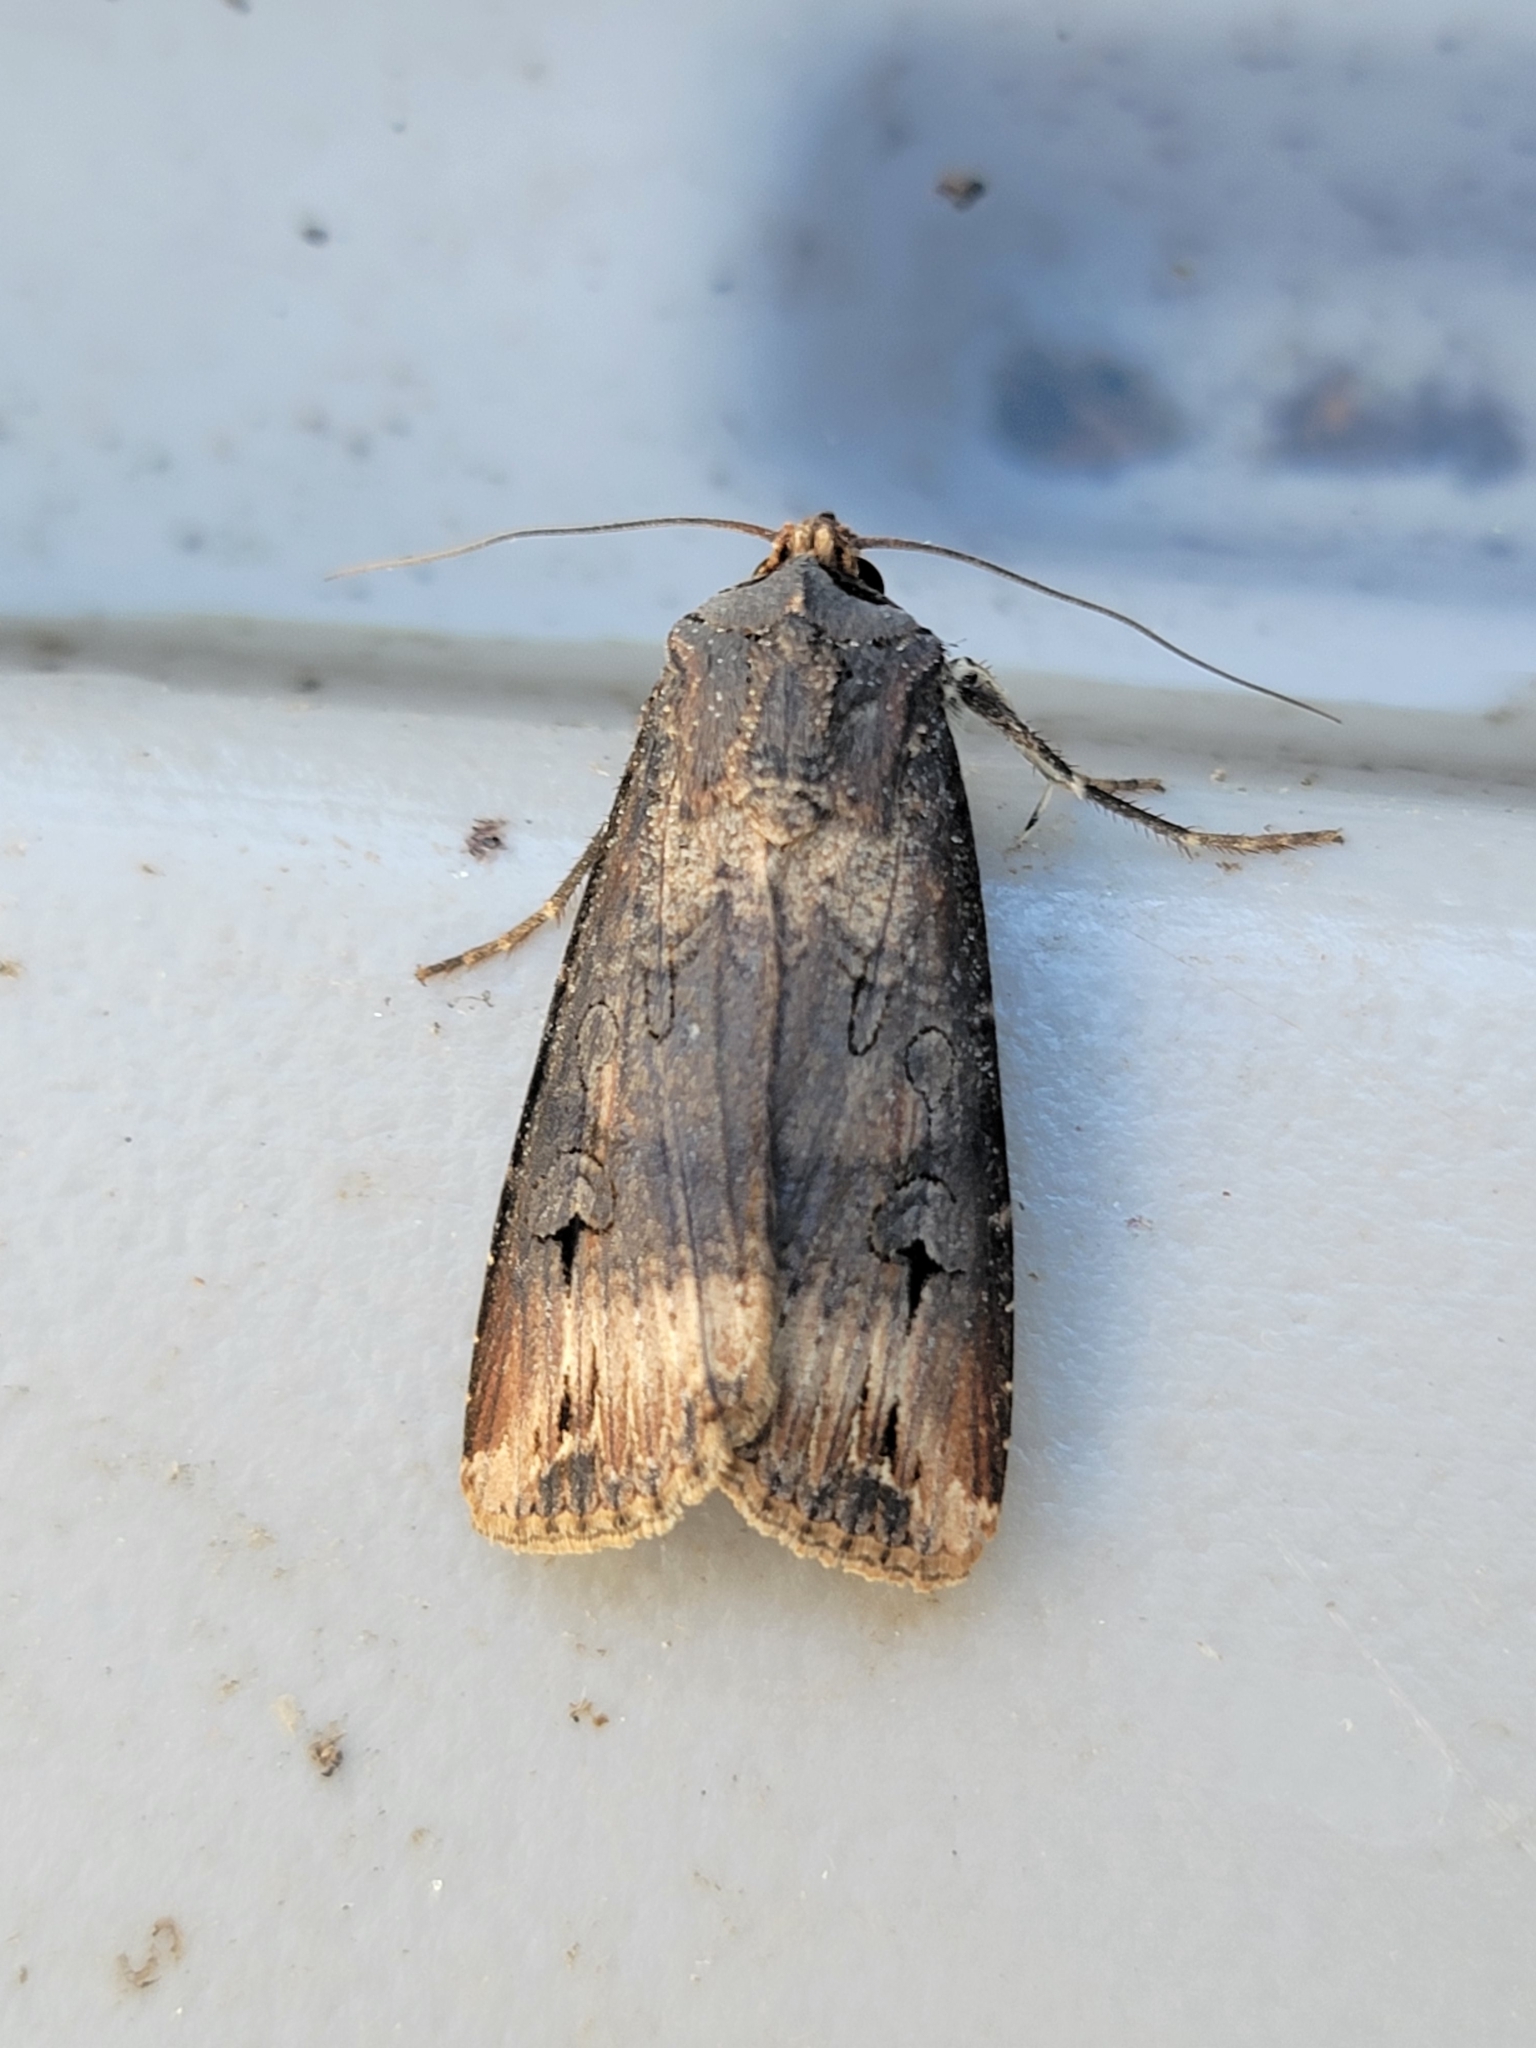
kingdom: Animalia
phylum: Arthropoda
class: Insecta
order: Lepidoptera
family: Noctuidae
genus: Agrotis
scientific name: Agrotis ipsilon
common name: Dark sword-grass
